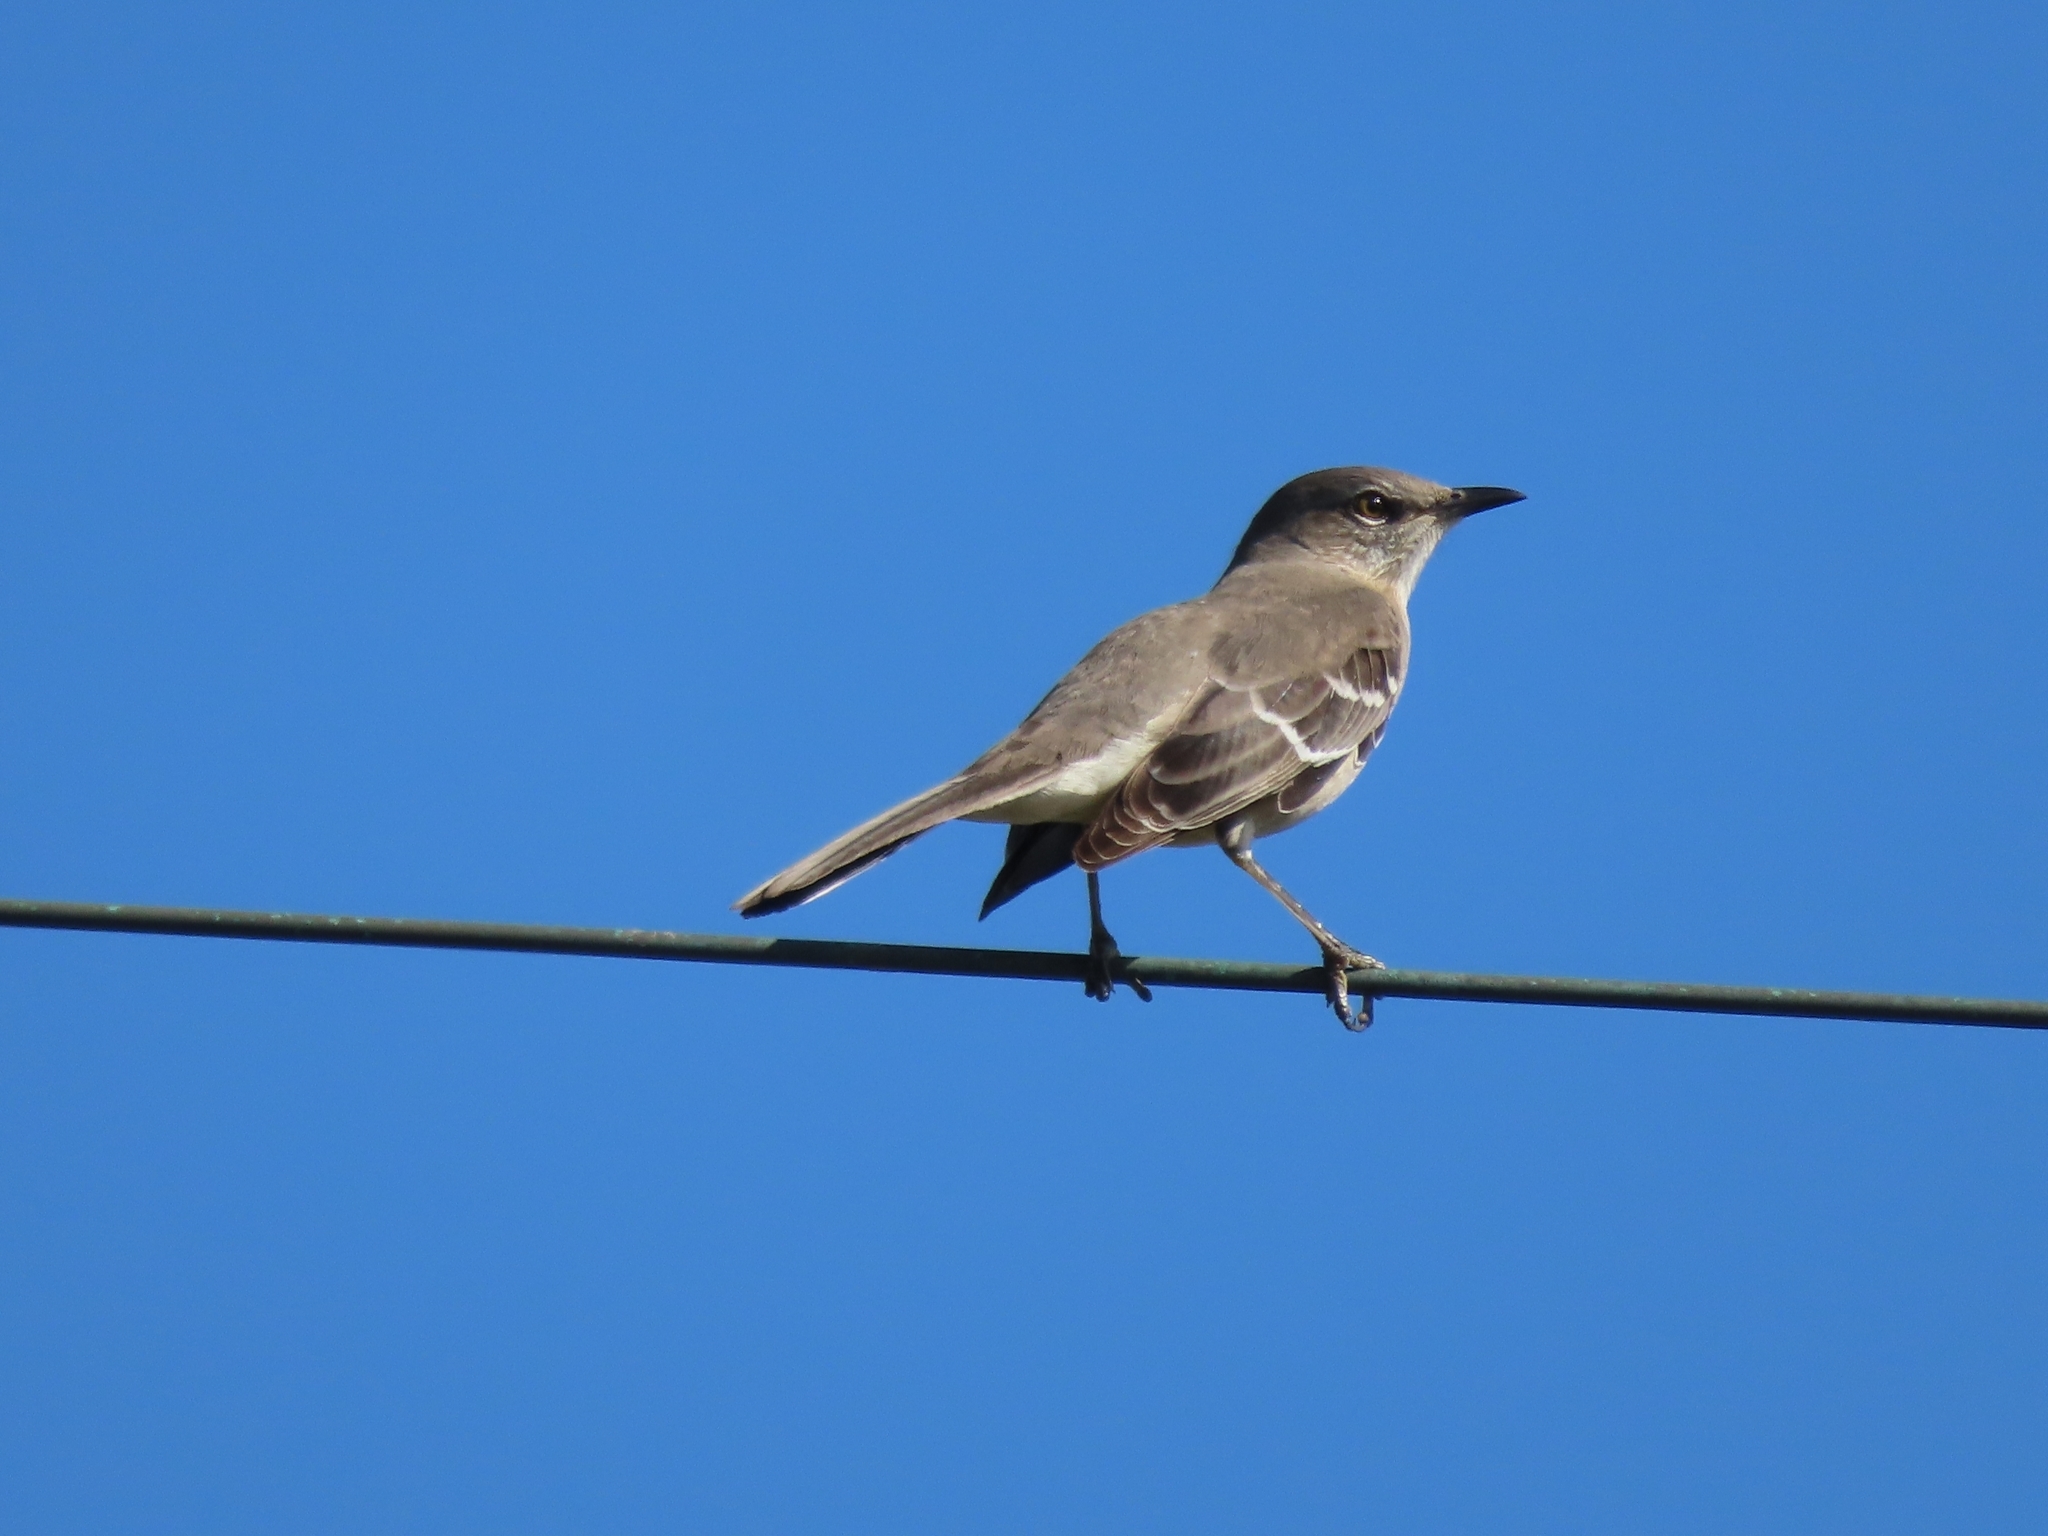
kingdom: Animalia
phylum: Chordata
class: Aves
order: Passeriformes
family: Mimidae
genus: Mimus
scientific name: Mimus polyglottos
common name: Northern mockingbird
